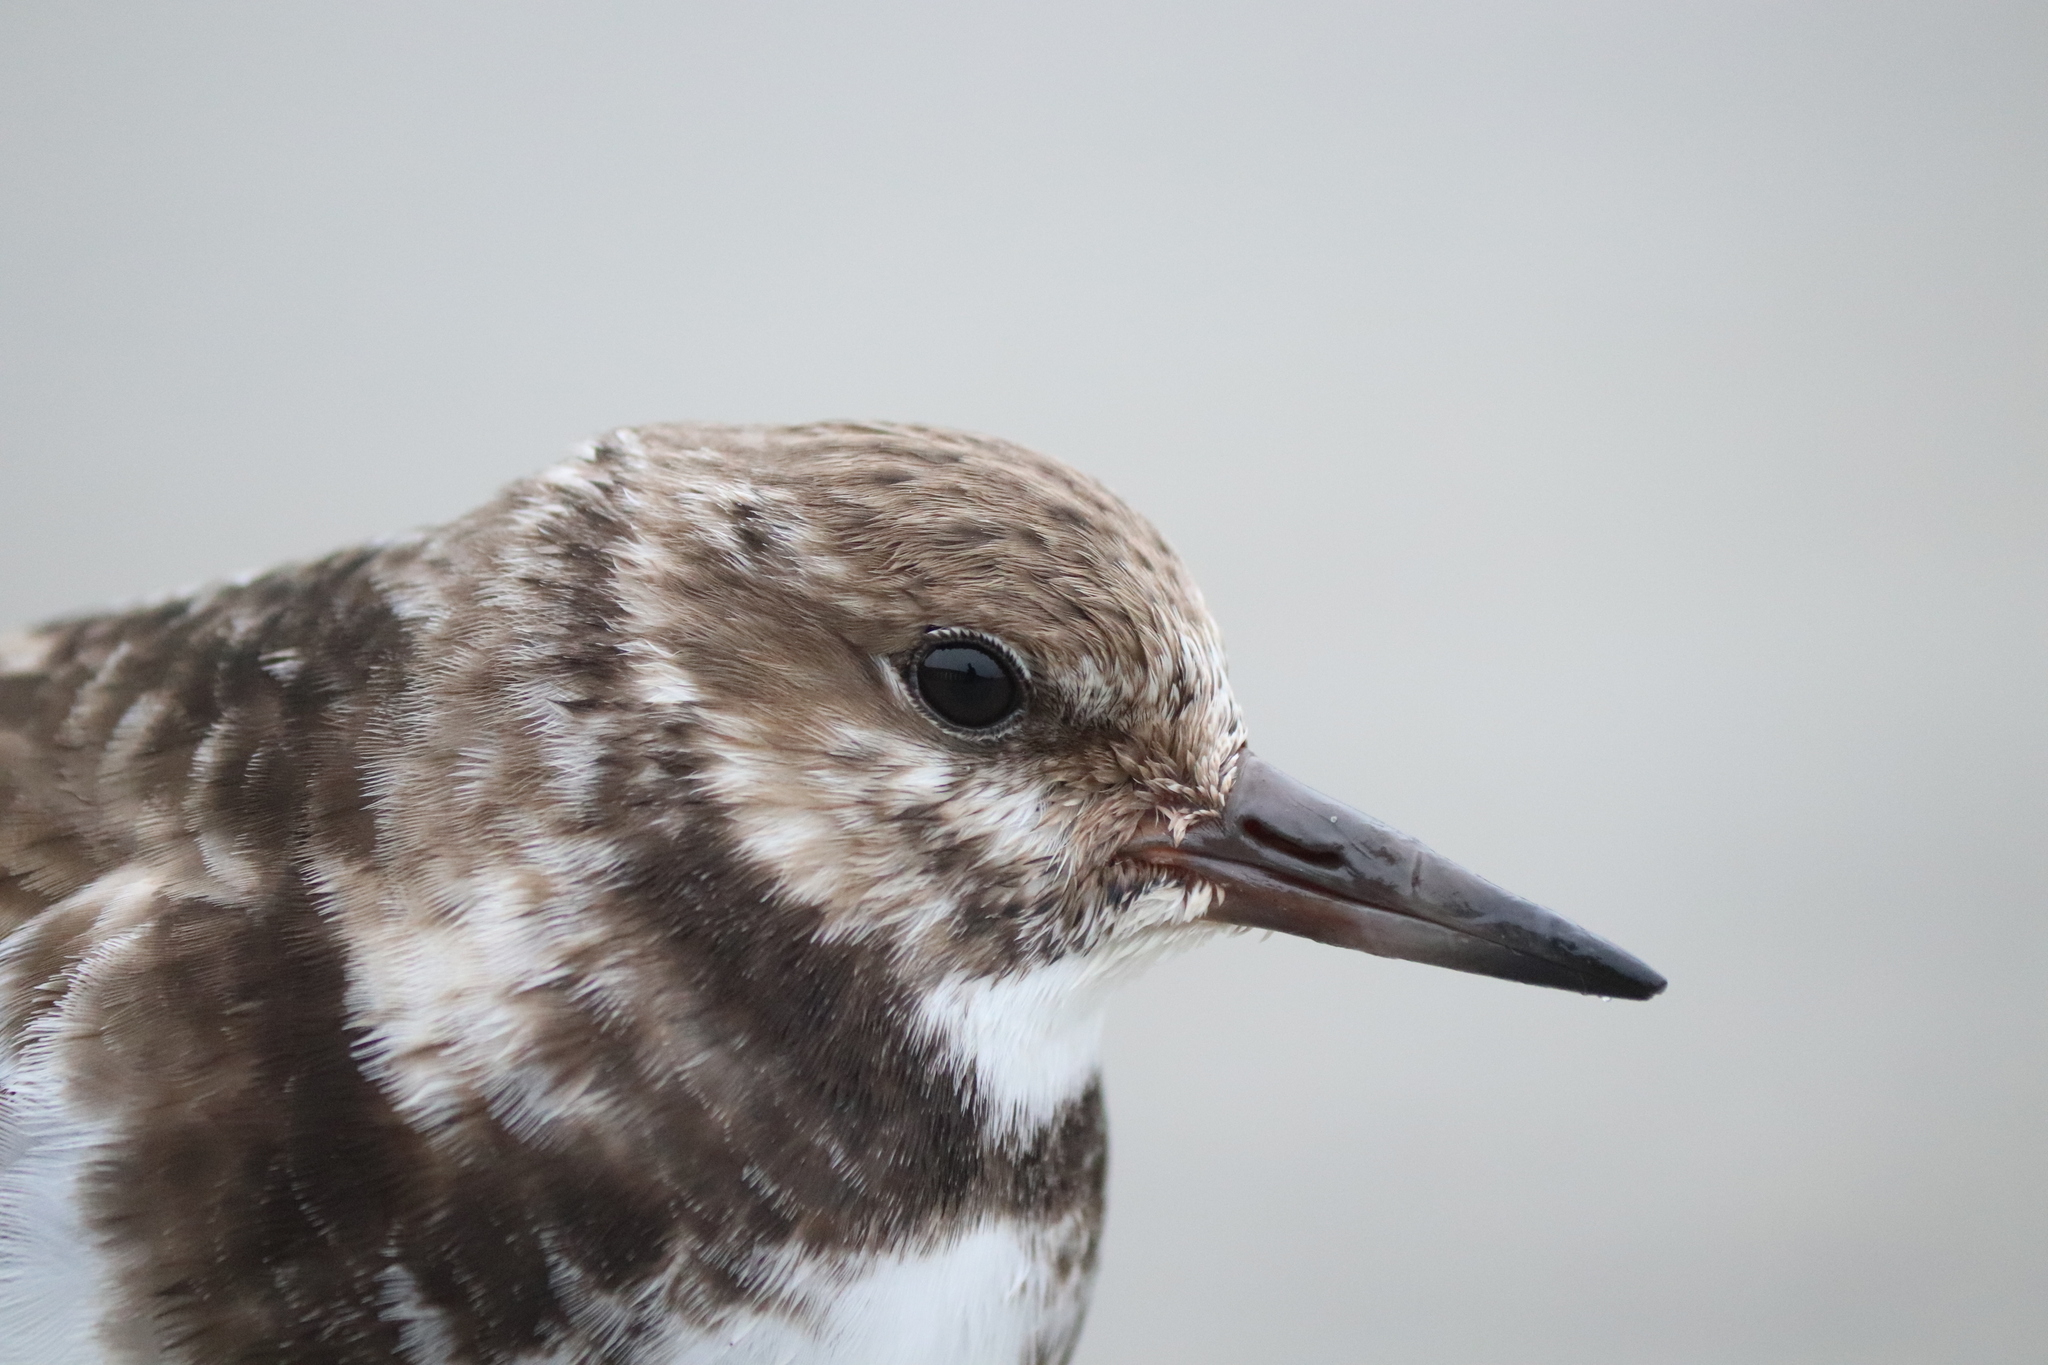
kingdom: Animalia
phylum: Chordata
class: Aves
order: Charadriiformes
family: Scolopacidae
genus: Arenaria
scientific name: Arenaria interpres
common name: Ruddy turnstone
